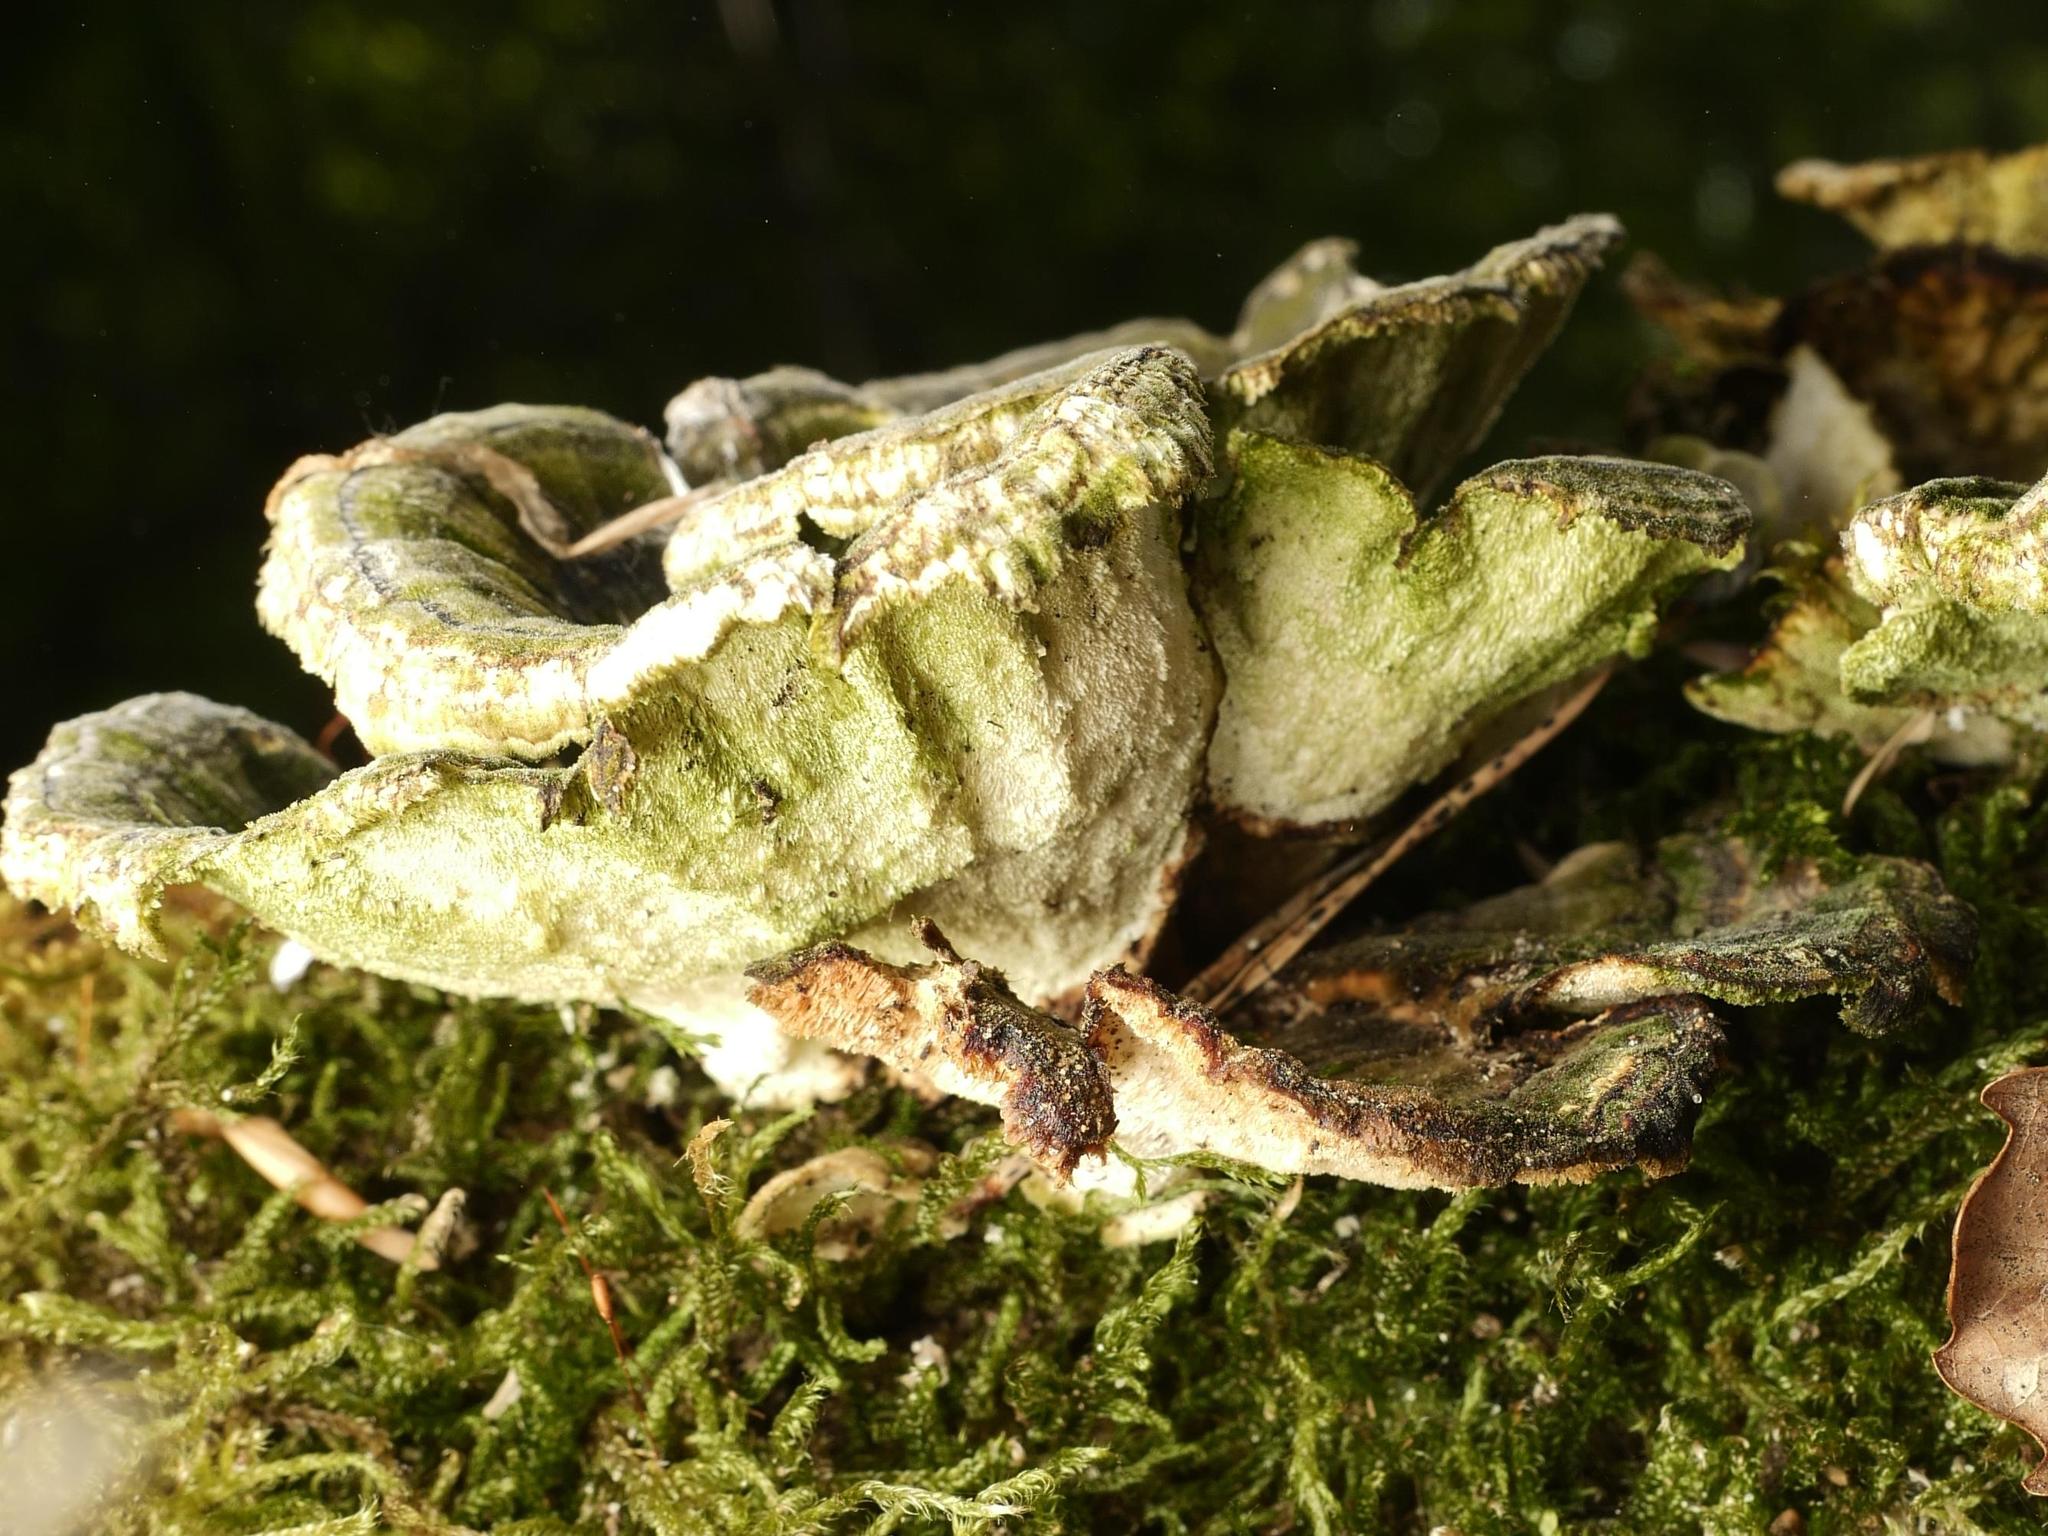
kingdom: Fungi
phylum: Basidiomycota
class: Agaricomycetes
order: Polyporales
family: Polyporaceae
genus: Trametes
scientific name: Trametes versicolor
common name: Turkeytail
